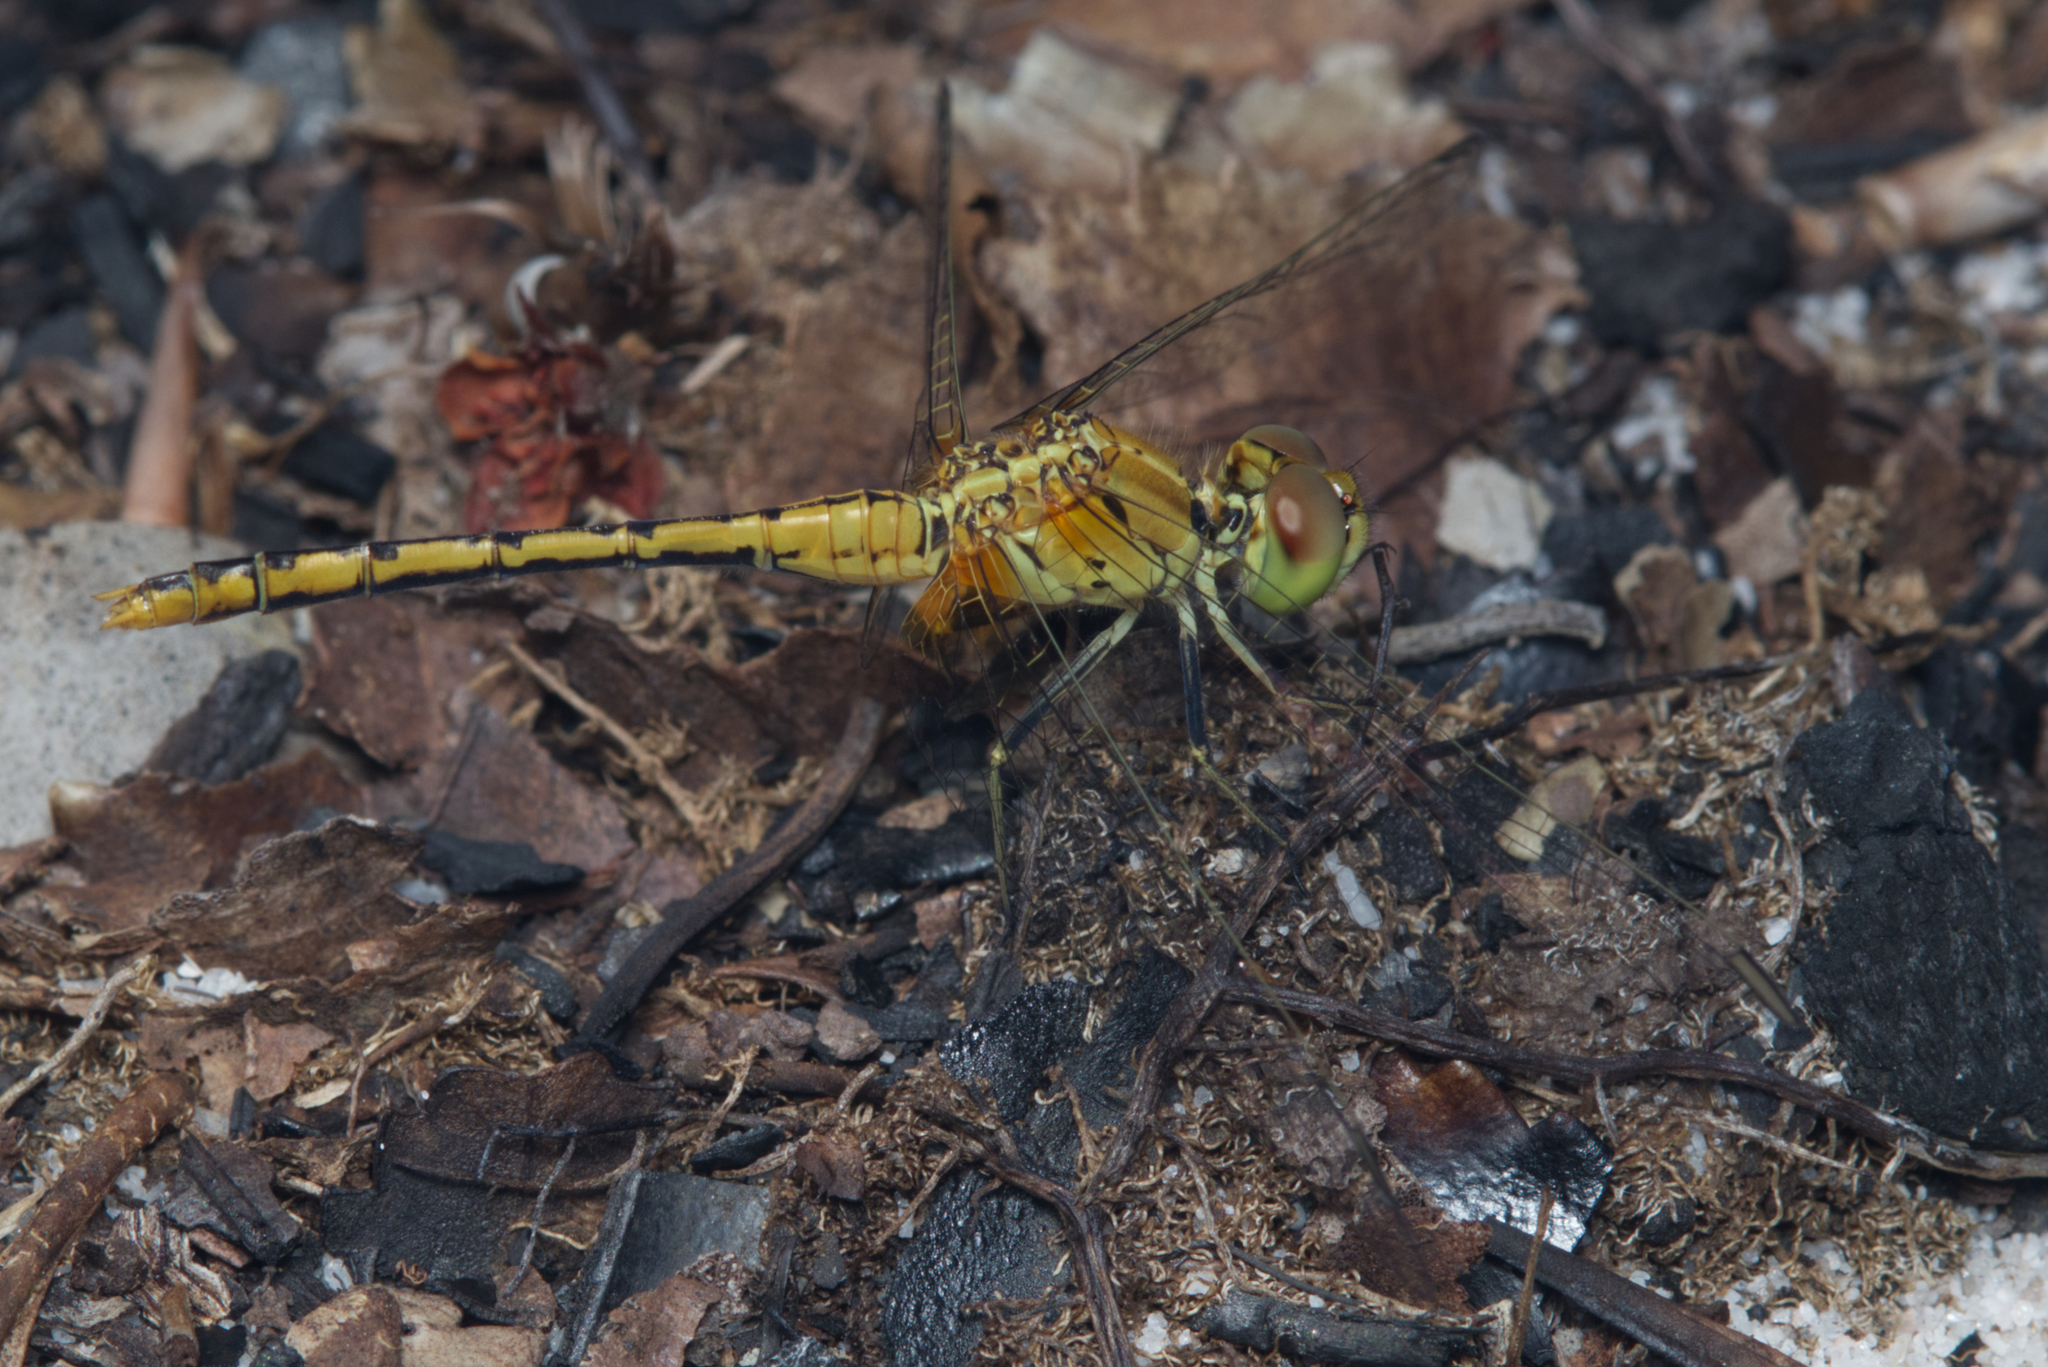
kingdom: Animalia
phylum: Arthropoda
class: Insecta
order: Odonata
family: Libellulidae
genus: Diplacodes
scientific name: Diplacodes bipunctata
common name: Red percher dragonfly
